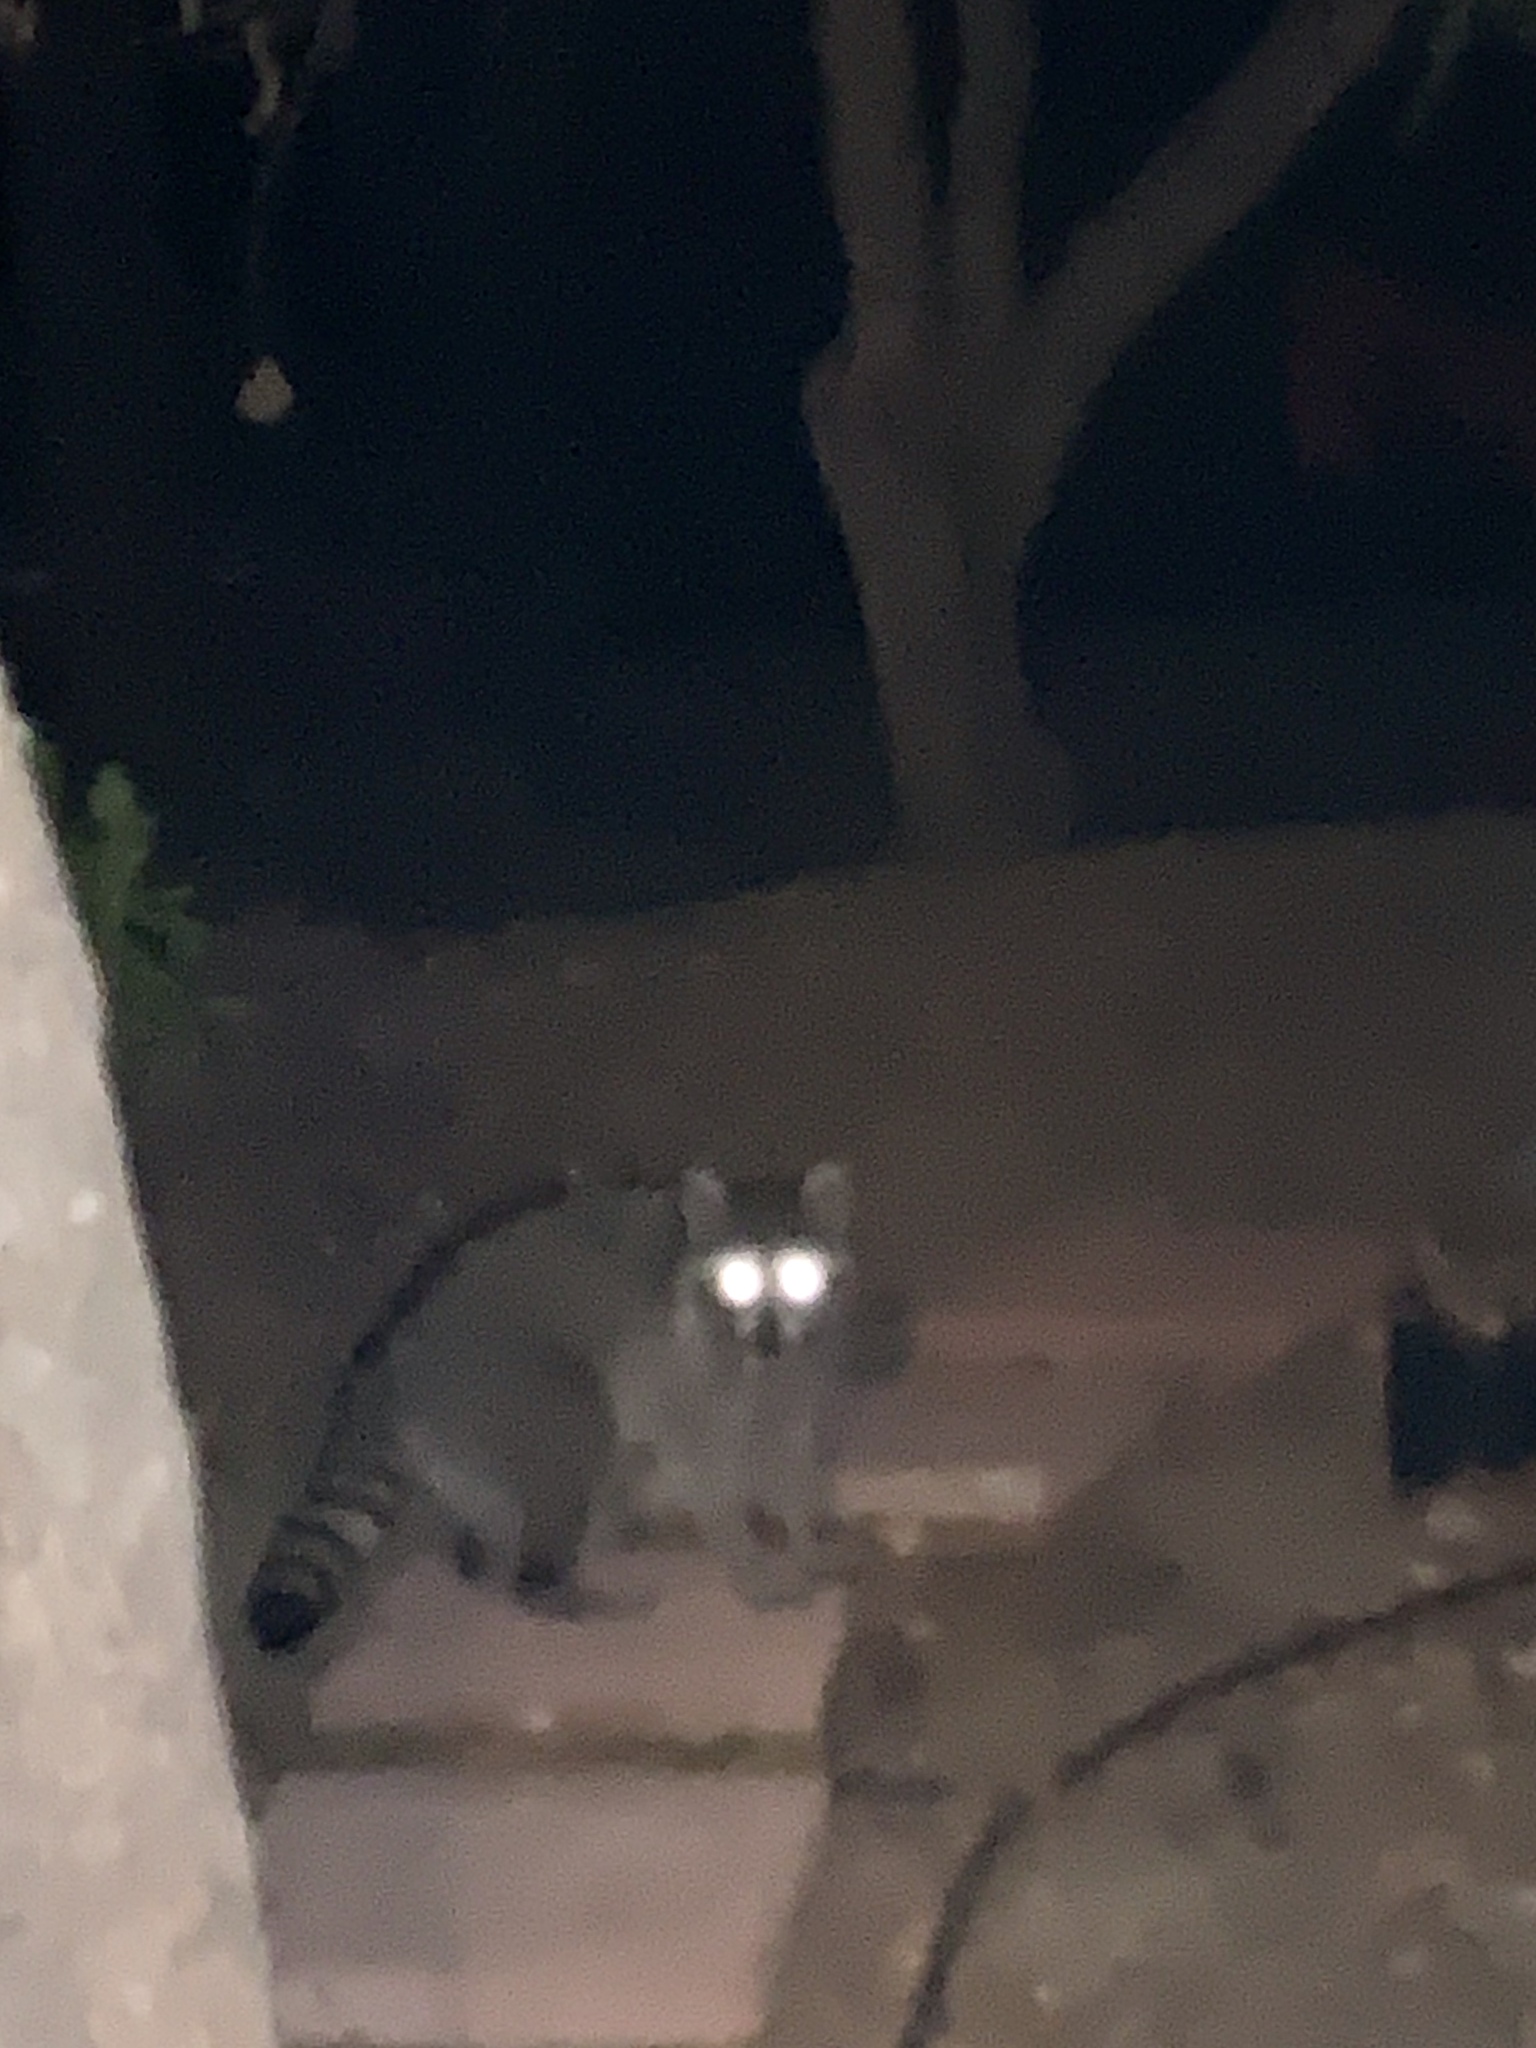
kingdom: Animalia
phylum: Chordata
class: Mammalia
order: Carnivora
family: Procyonidae
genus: Procyon
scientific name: Procyon lotor
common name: Raccoon
